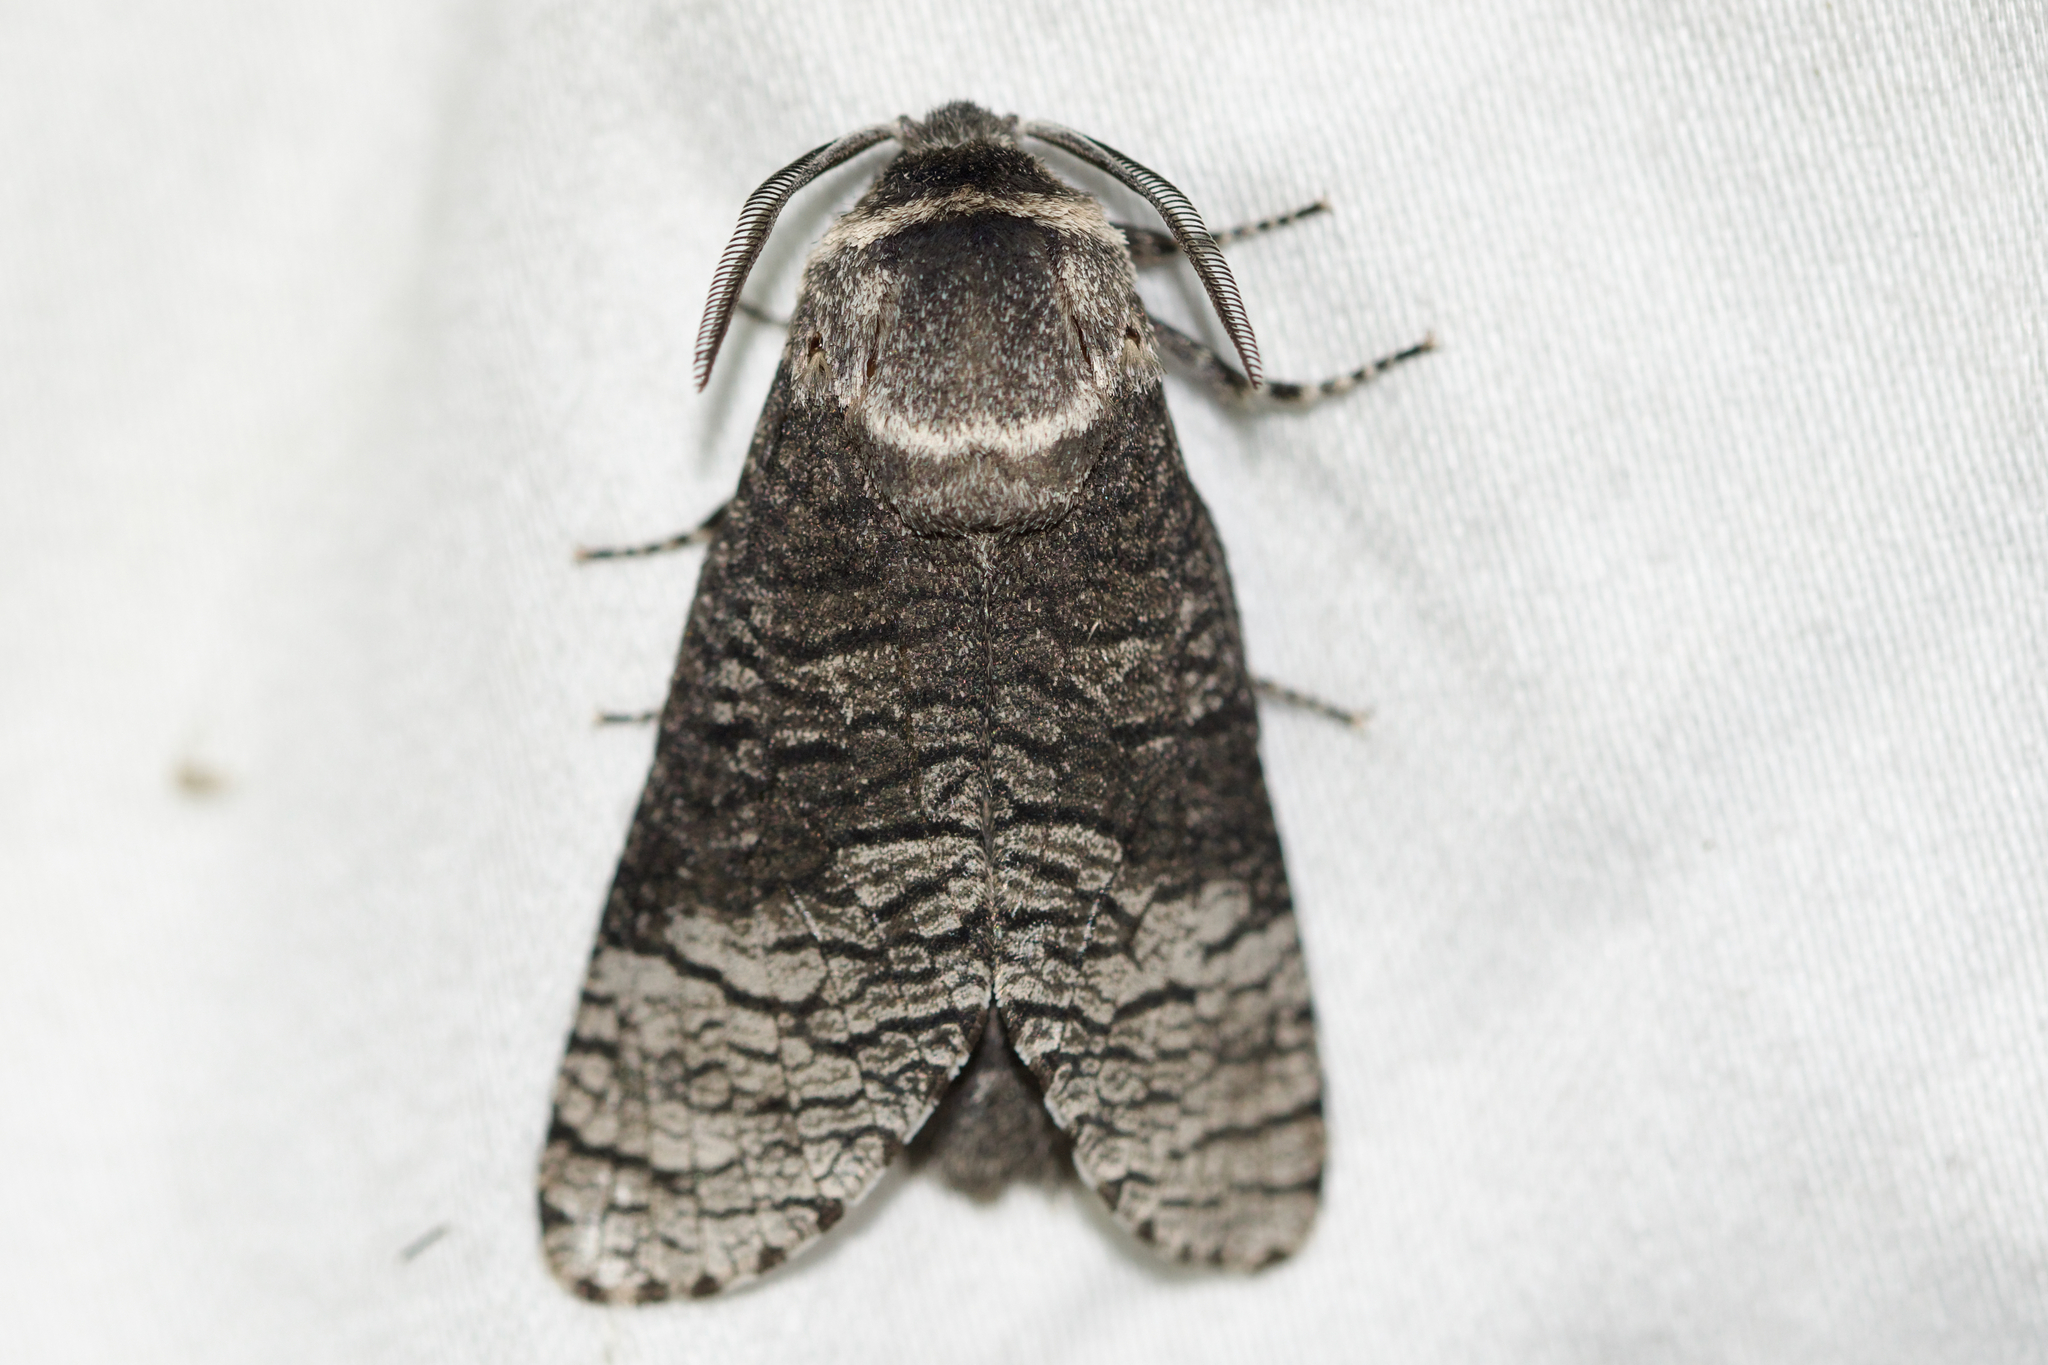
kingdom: Animalia
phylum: Arthropoda
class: Insecta
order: Lepidoptera
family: Cossidae
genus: Acossus
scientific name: Acossus centerensis
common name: Poplar carpenterworm moth
